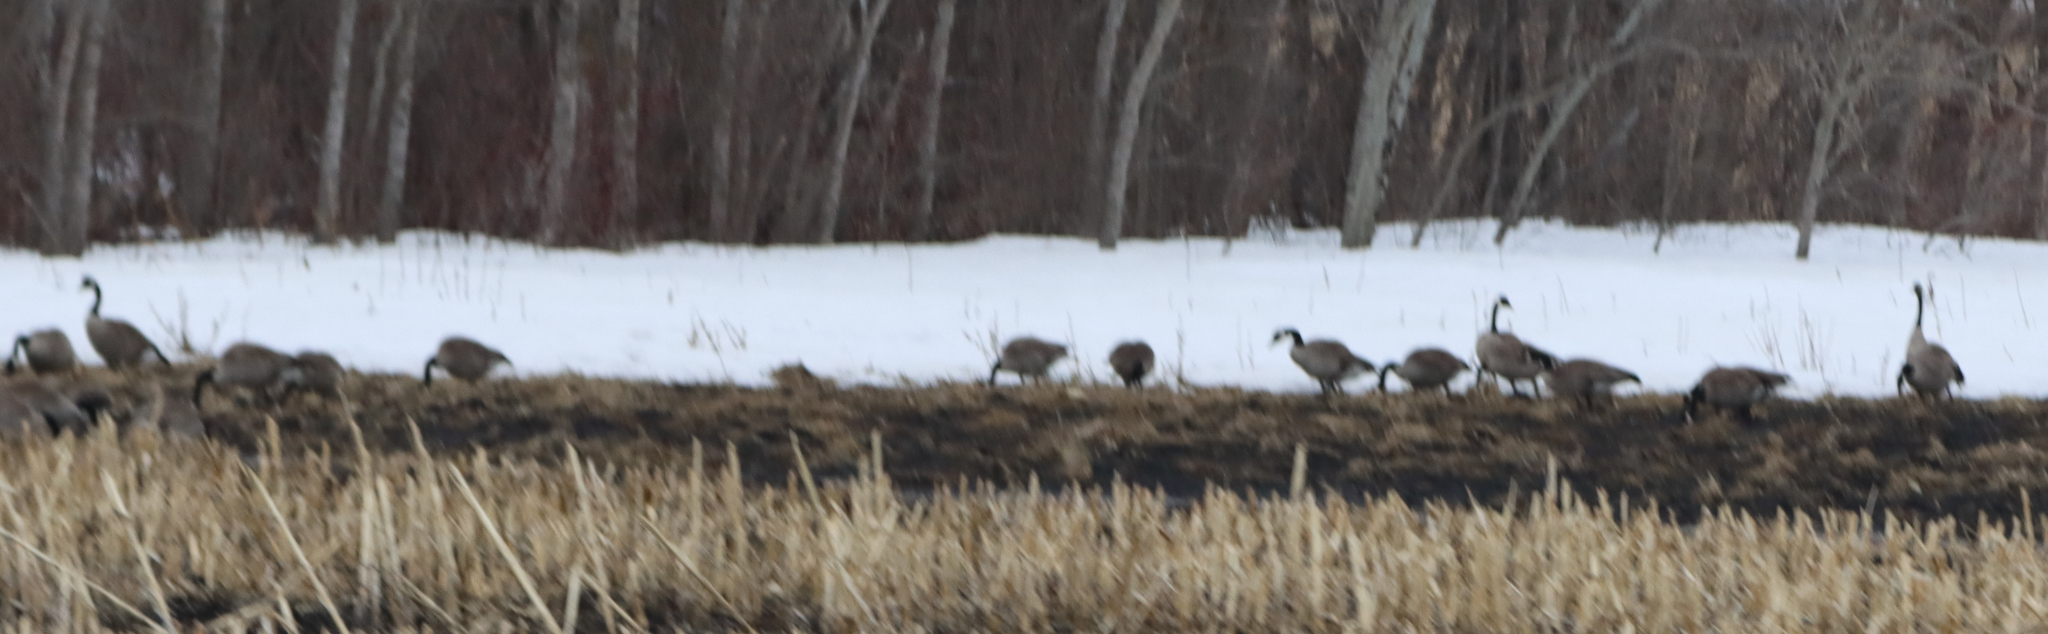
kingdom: Animalia
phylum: Chordata
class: Aves
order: Anseriformes
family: Anatidae
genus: Branta
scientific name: Branta canadensis
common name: Canada goose
